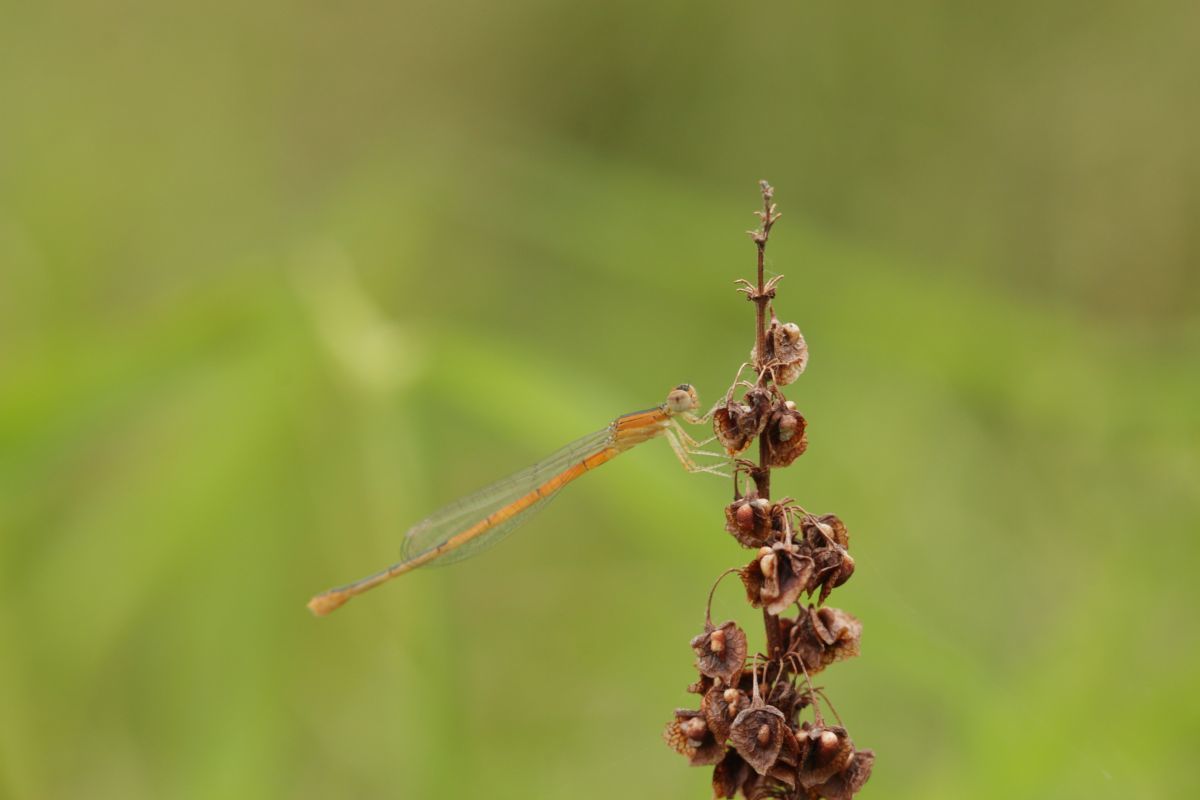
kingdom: Animalia
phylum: Arthropoda
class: Insecta
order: Odonata
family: Coenagrionidae
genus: Ischnura
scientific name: Ischnura hastata
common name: Citrine forktail
